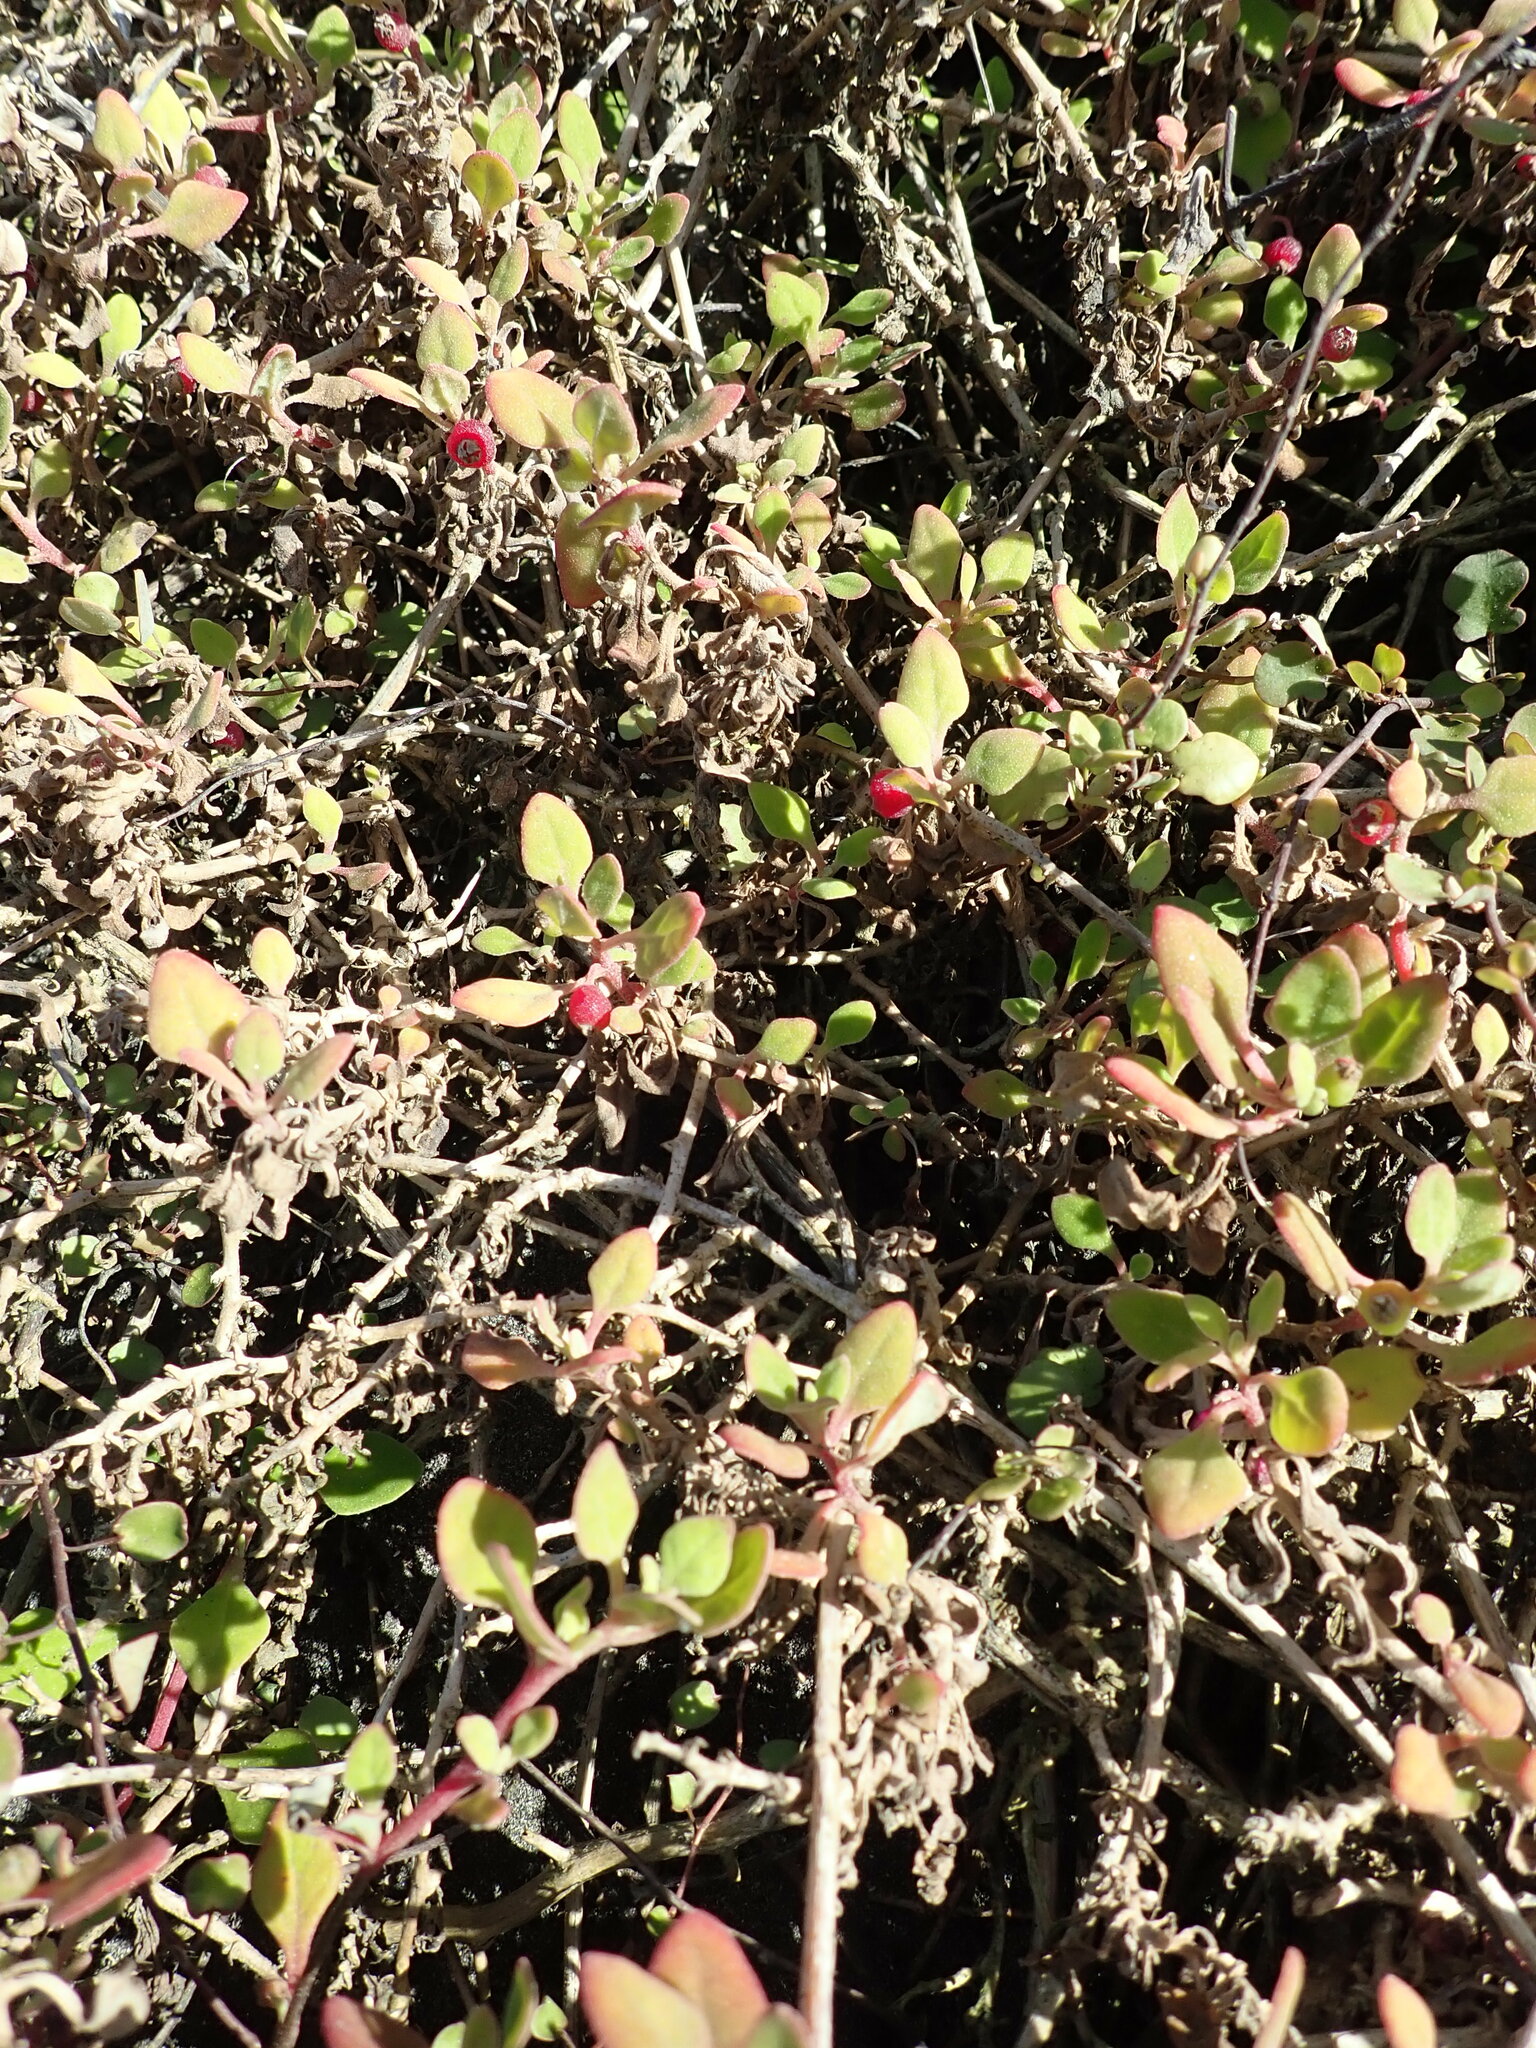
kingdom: Plantae
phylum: Tracheophyta
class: Magnoliopsida
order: Caryophyllales
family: Aizoaceae
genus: Tetragonia
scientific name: Tetragonia implexicoma
